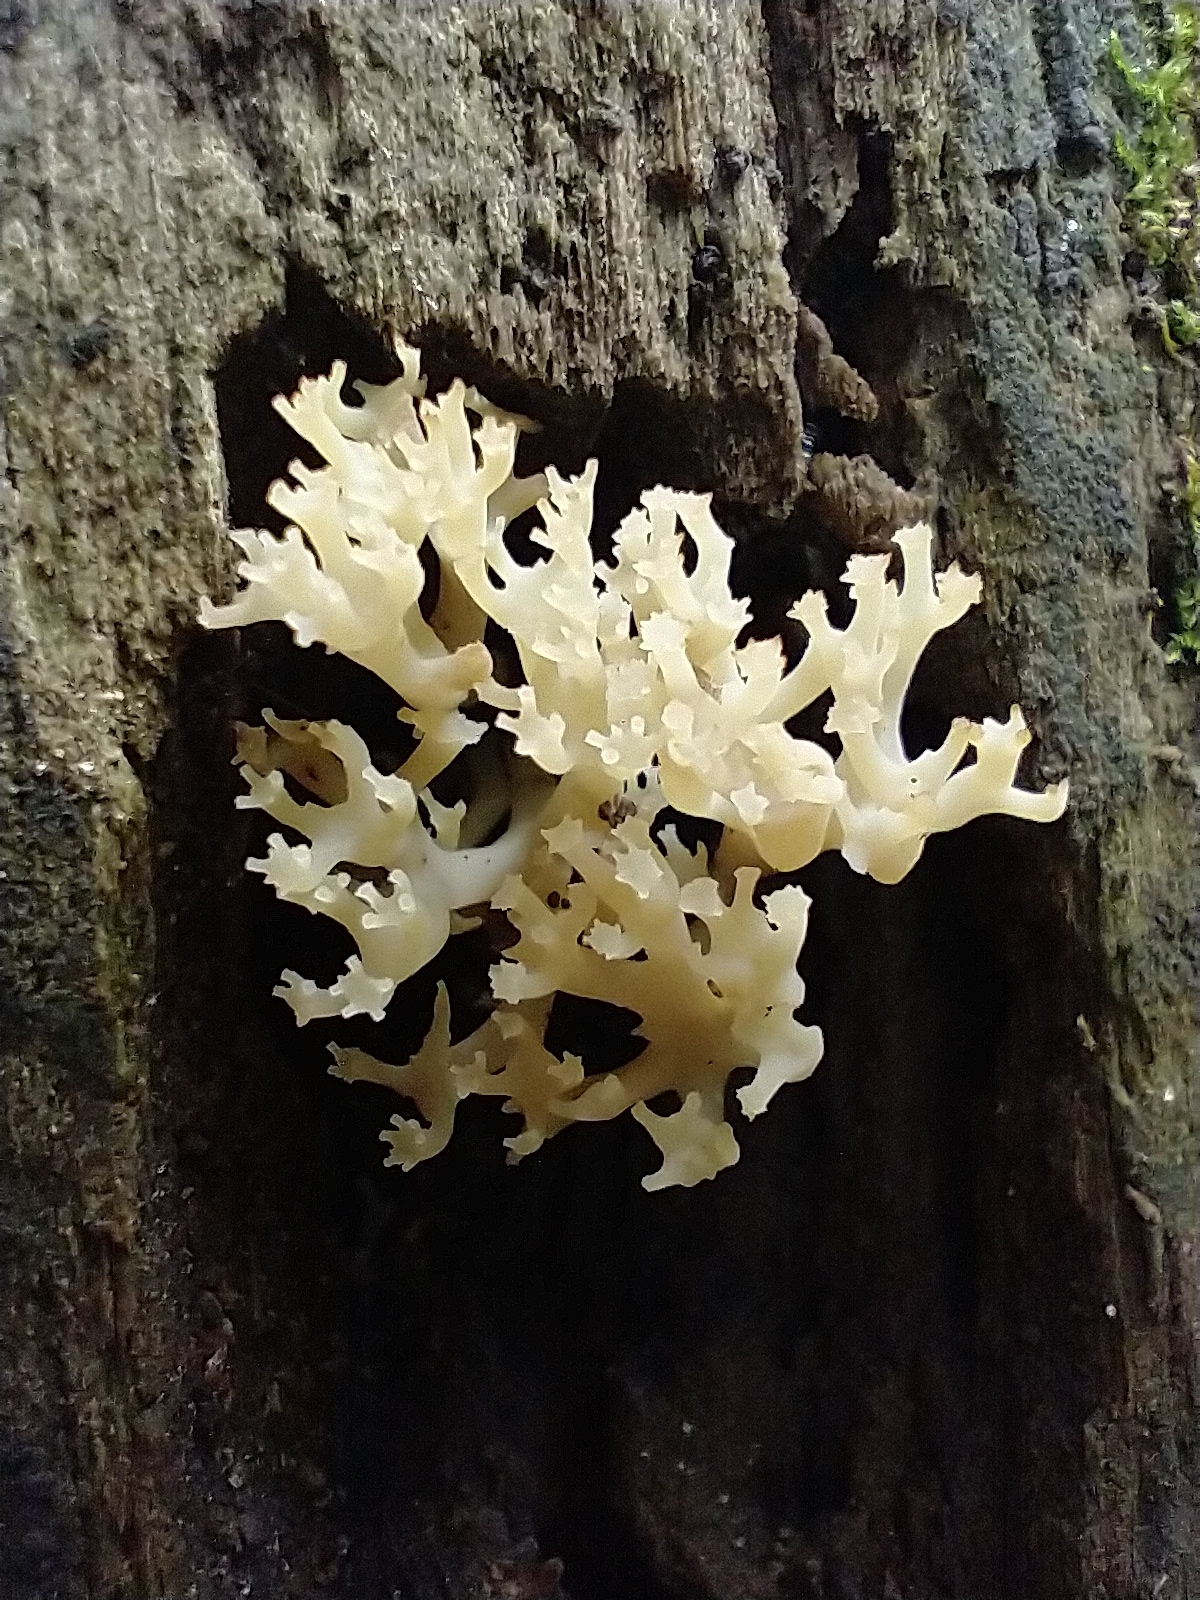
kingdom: Fungi
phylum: Basidiomycota
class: Agaricomycetes
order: Russulales
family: Auriscalpiaceae
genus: Artomyces
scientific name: Artomyces pyxidatus
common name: Crown-tipped coral fungus
